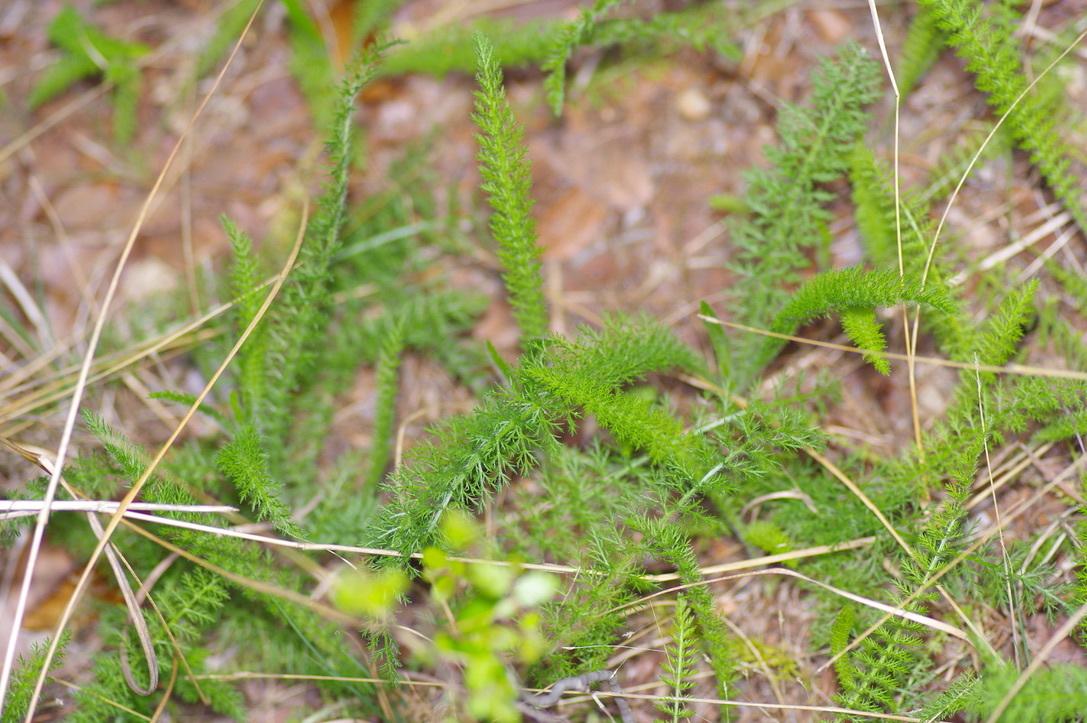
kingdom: Plantae
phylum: Tracheophyta
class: Magnoliopsida
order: Asterales
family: Asteraceae
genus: Achillea
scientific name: Achillea millefolium
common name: Yarrow
